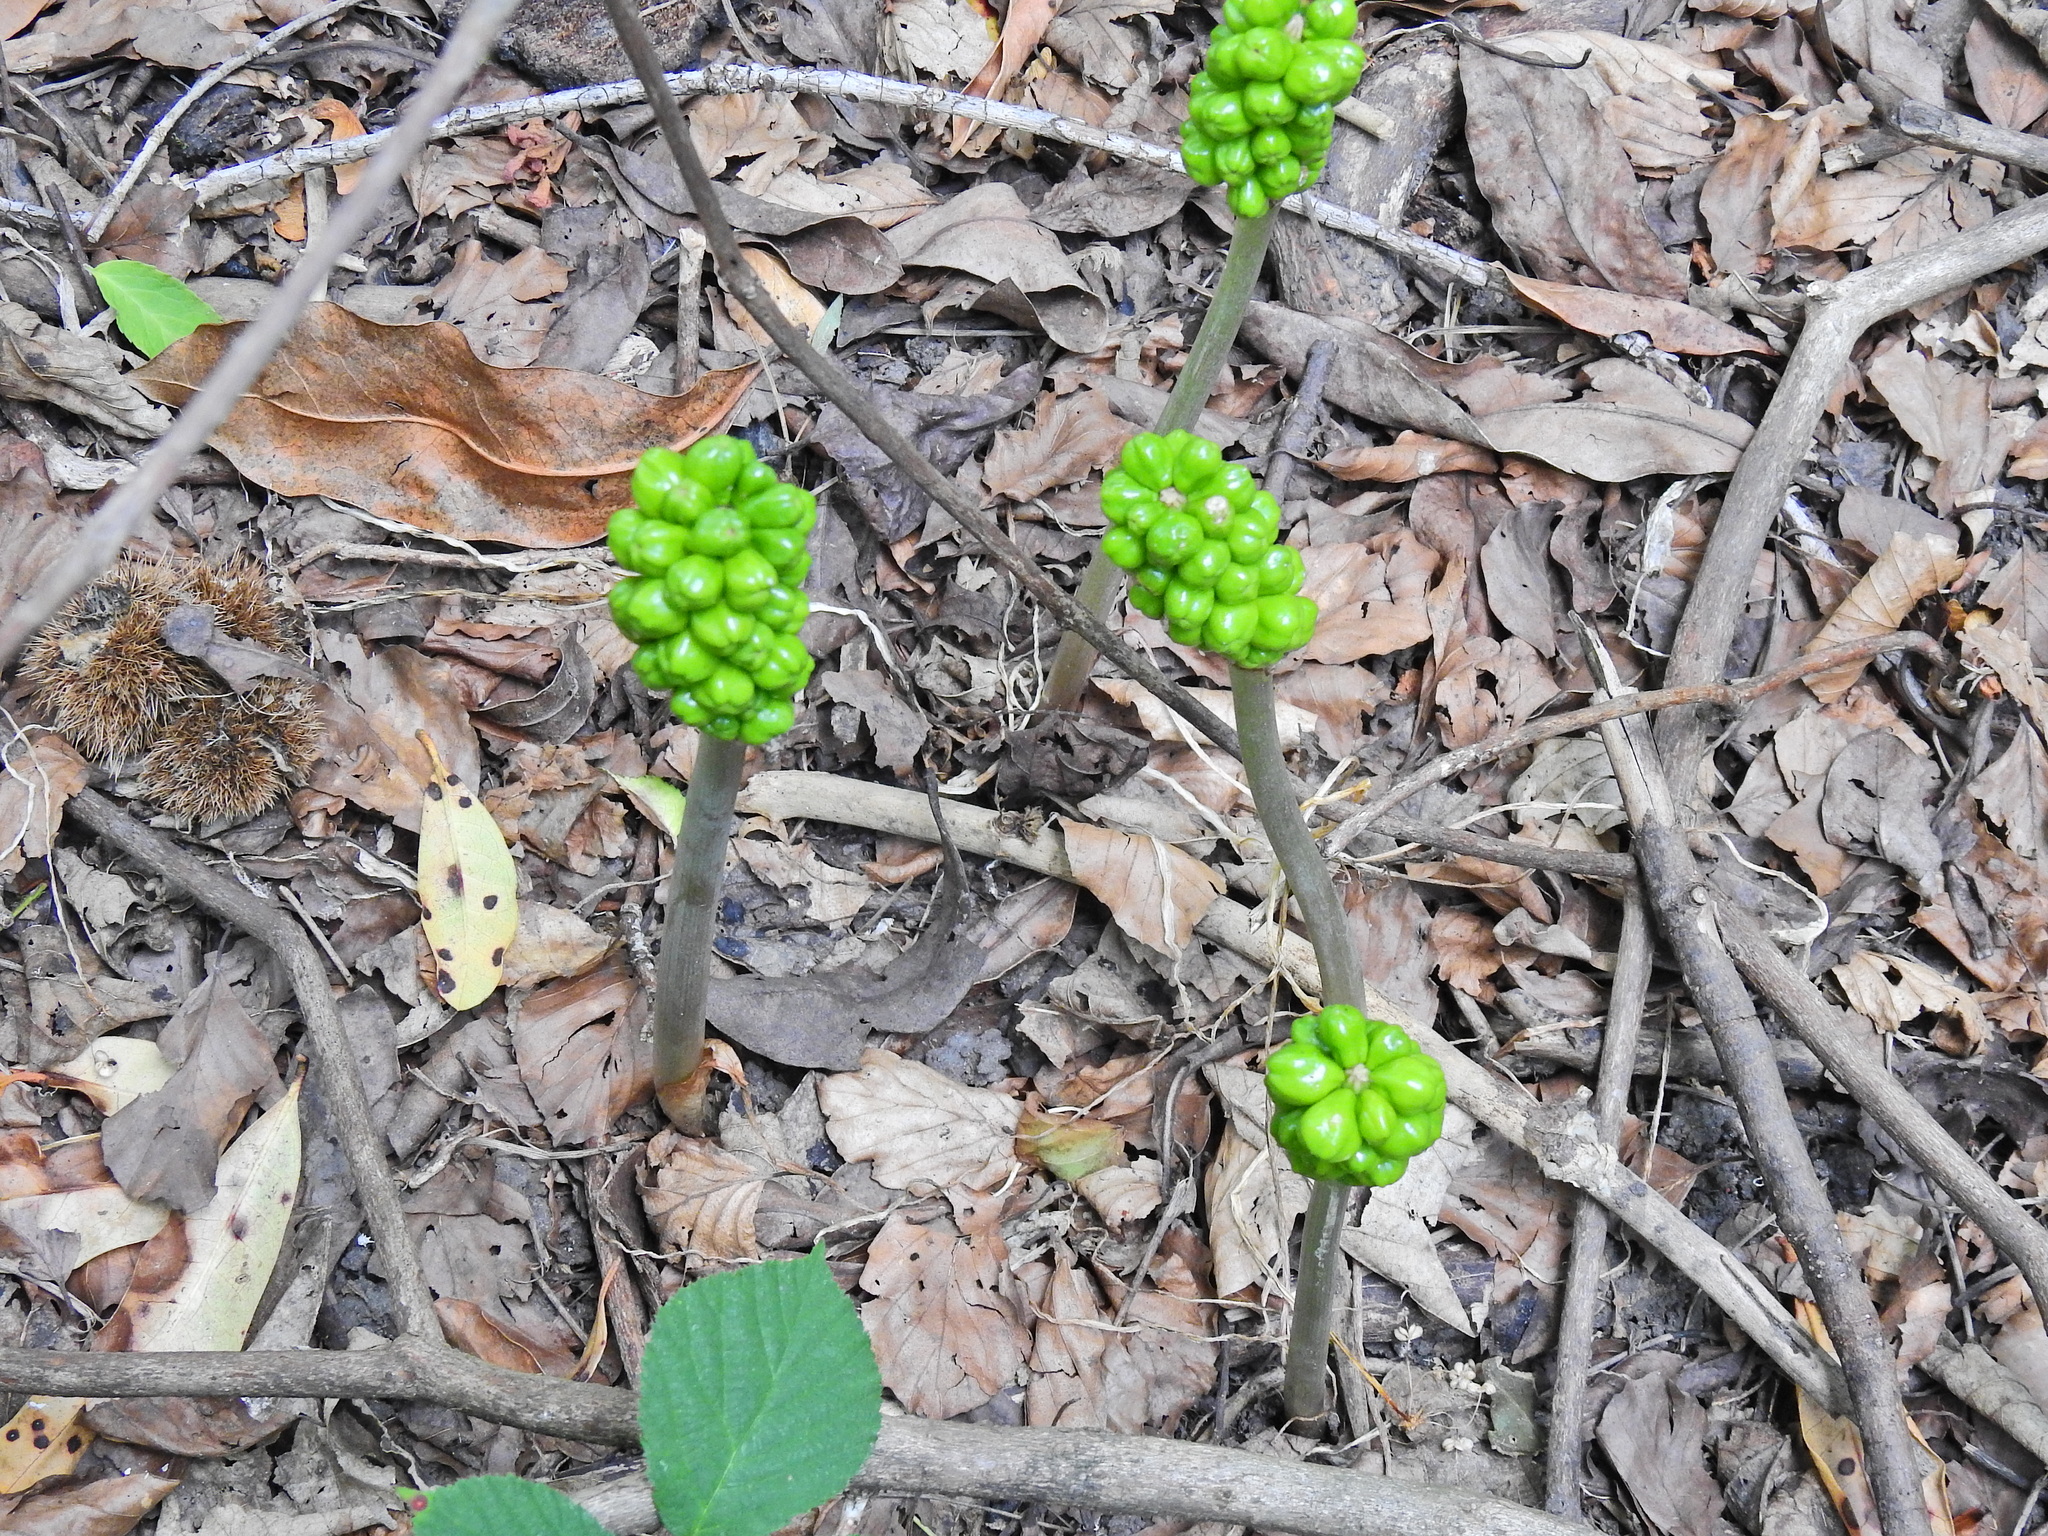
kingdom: Plantae
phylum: Tracheophyta
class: Liliopsida
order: Alismatales
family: Araceae
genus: Arum
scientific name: Arum maculatum
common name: Lords-and-ladies
